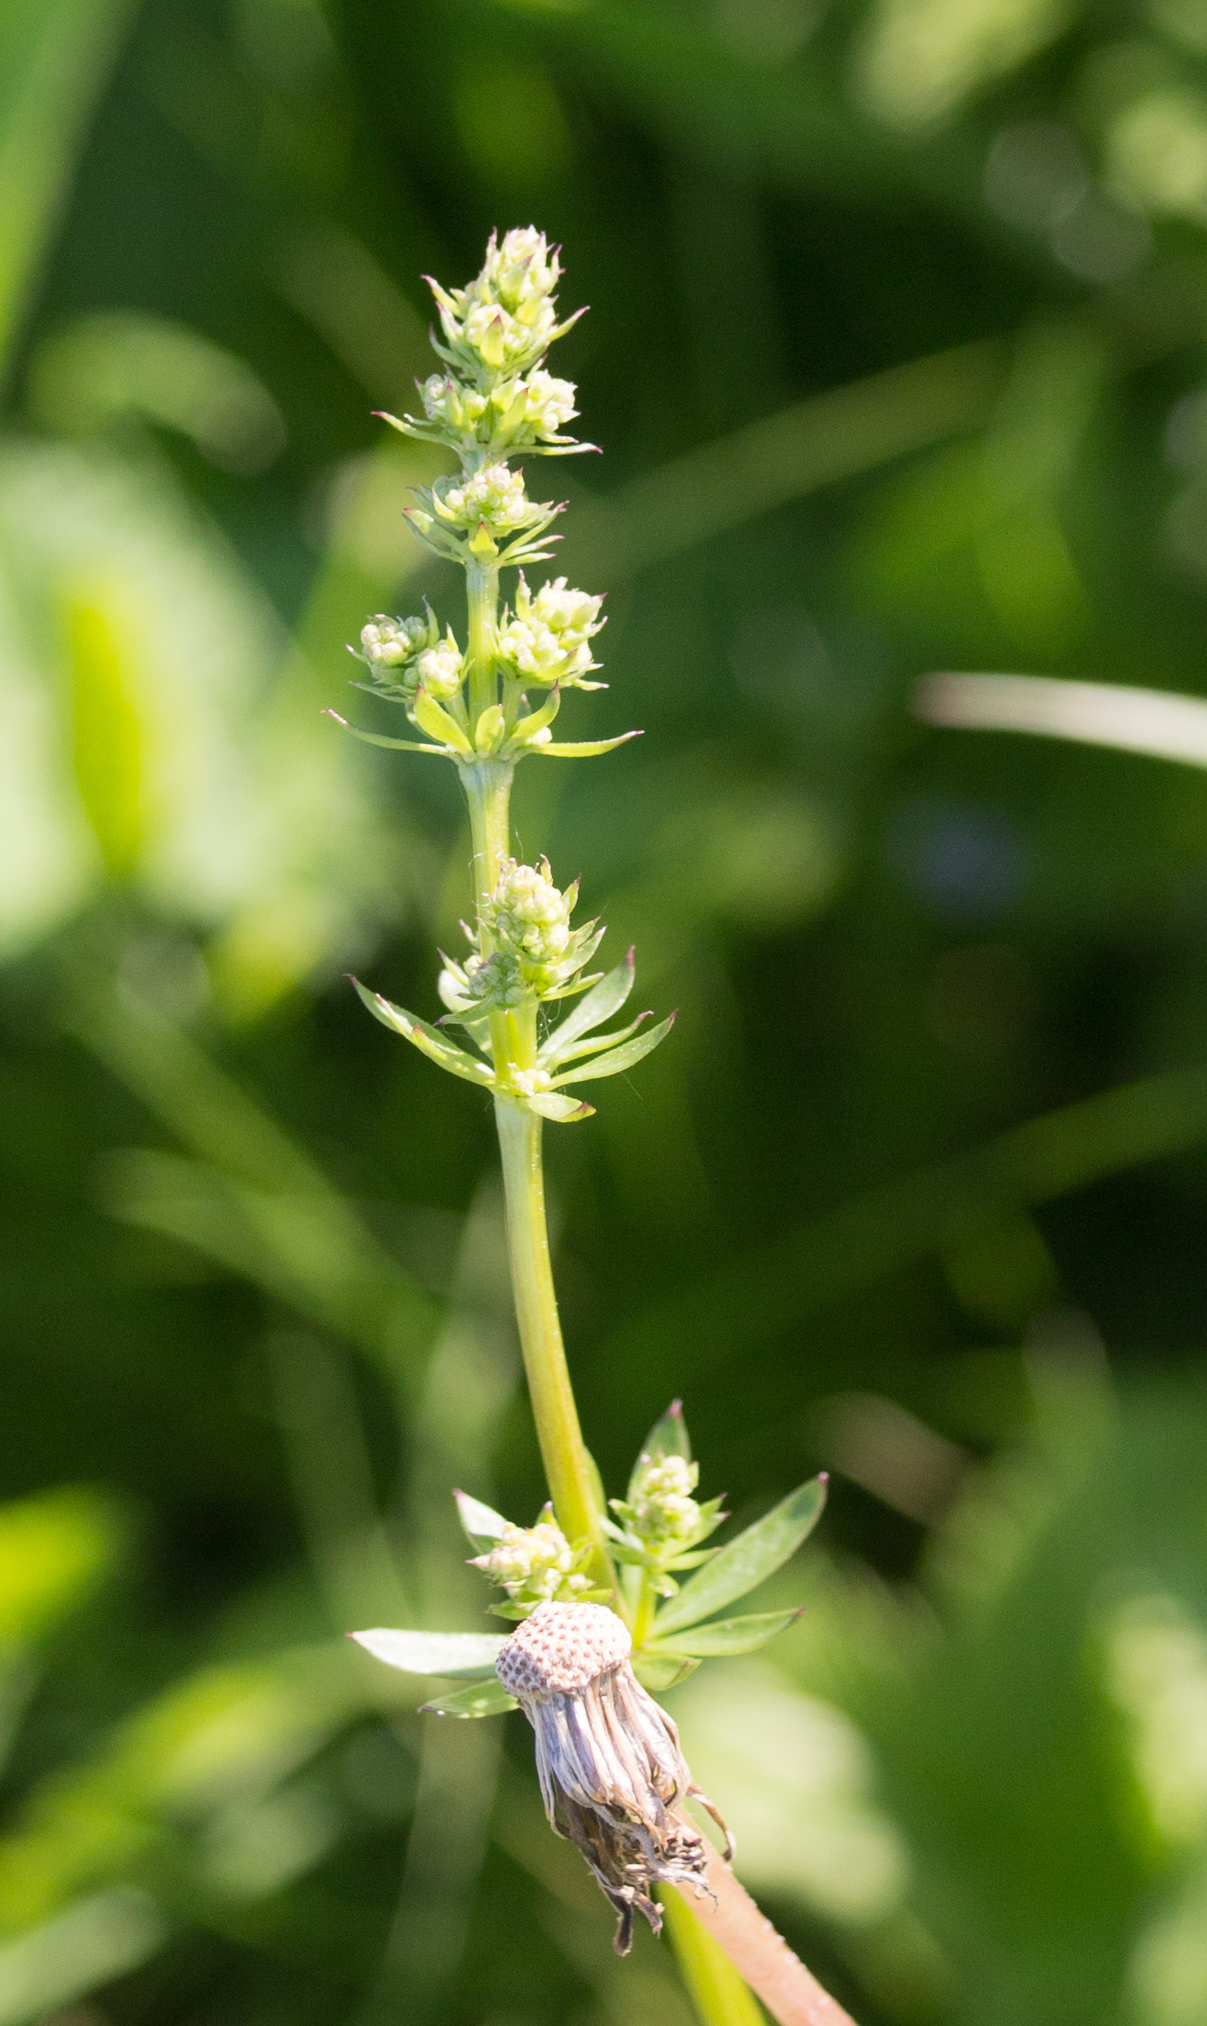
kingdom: Plantae
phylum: Tracheophyta
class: Magnoliopsida
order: Gentianales
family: Rubiaceae
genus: Galium
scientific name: Galium mollugo
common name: Hedge bedstraw
